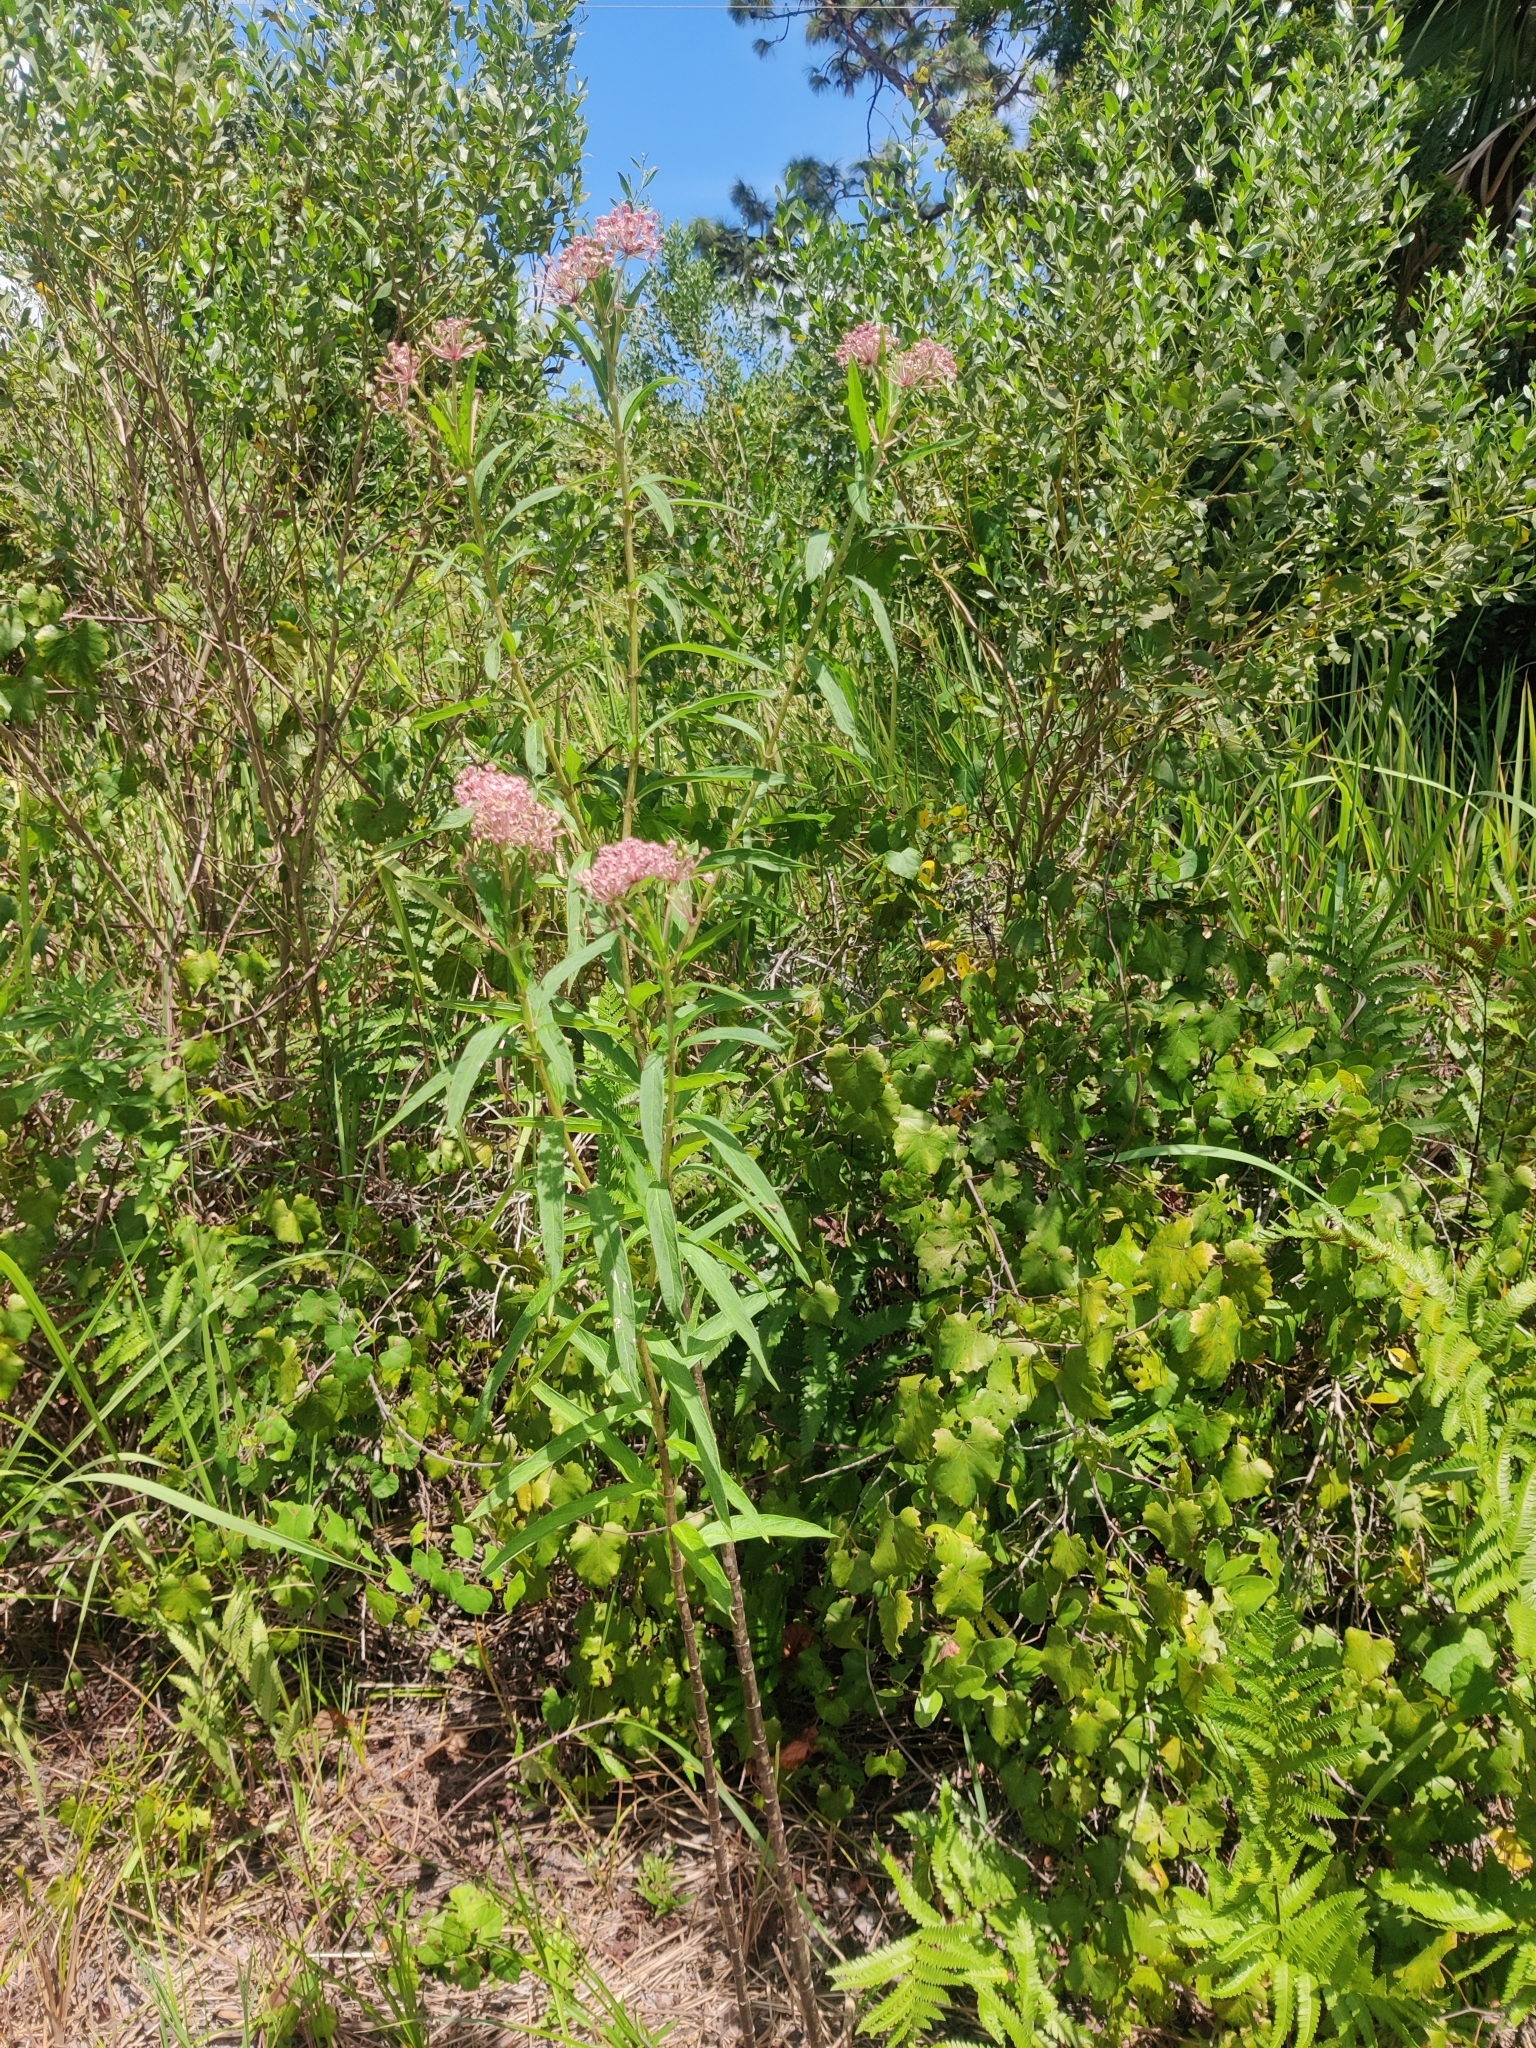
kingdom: Plantae
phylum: Tracheophyta
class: Magnoliopsida
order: Gentianales
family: Apocynaceae
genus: Asclepias
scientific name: Asclepias incarnata
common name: Swamp milkweed
